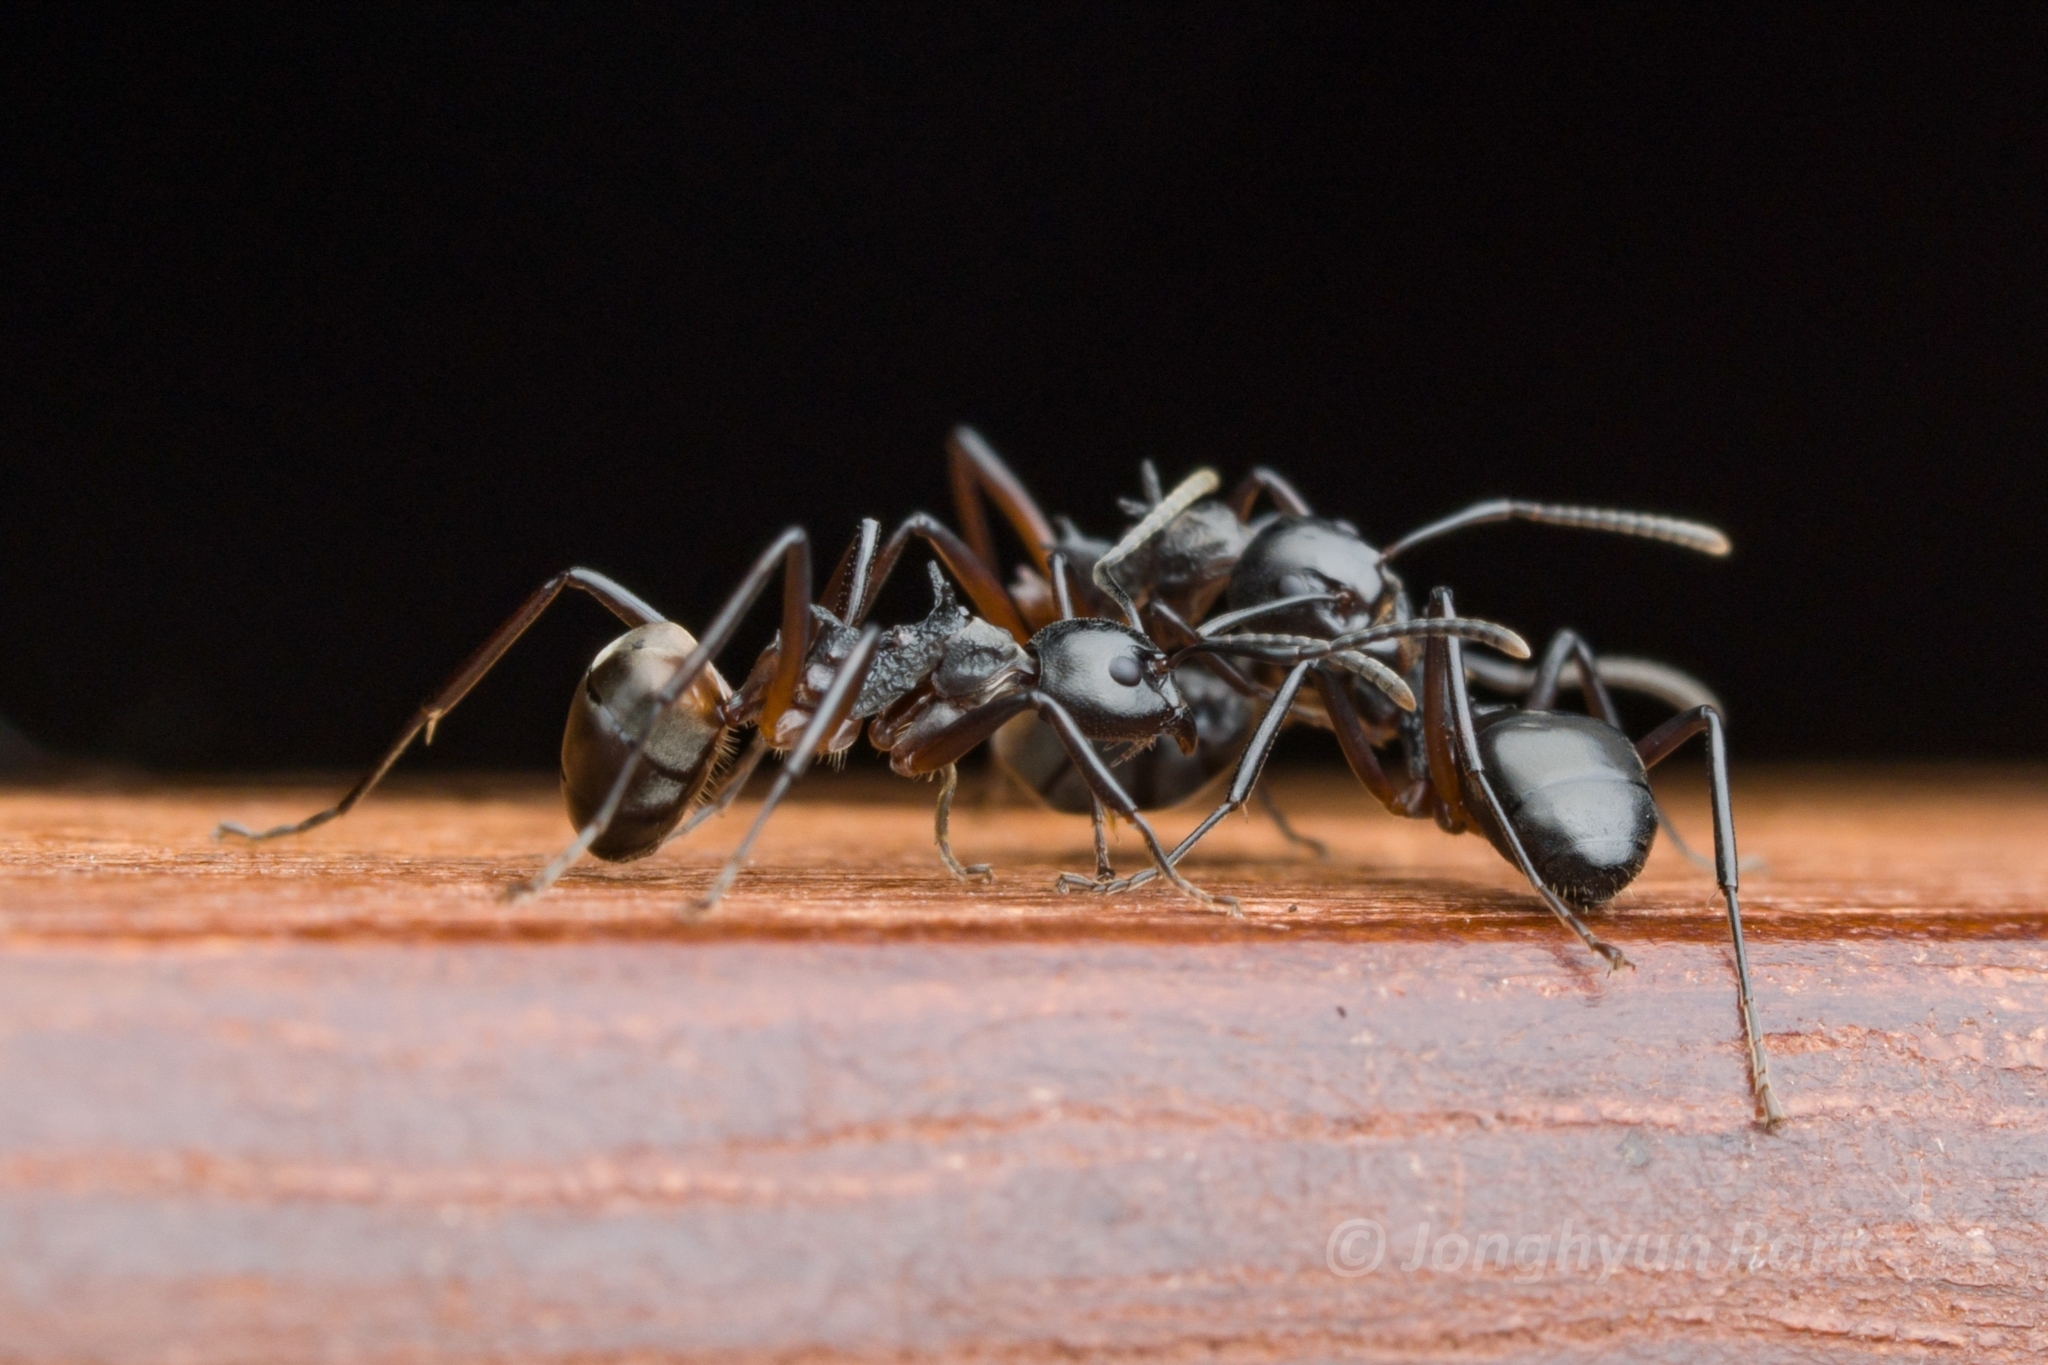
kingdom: Animalia
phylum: Arthropoda
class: Insecta
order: Hymenoptera
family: Formicidae
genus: Dolichoderus
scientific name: Dolichoderus cuspidatus
